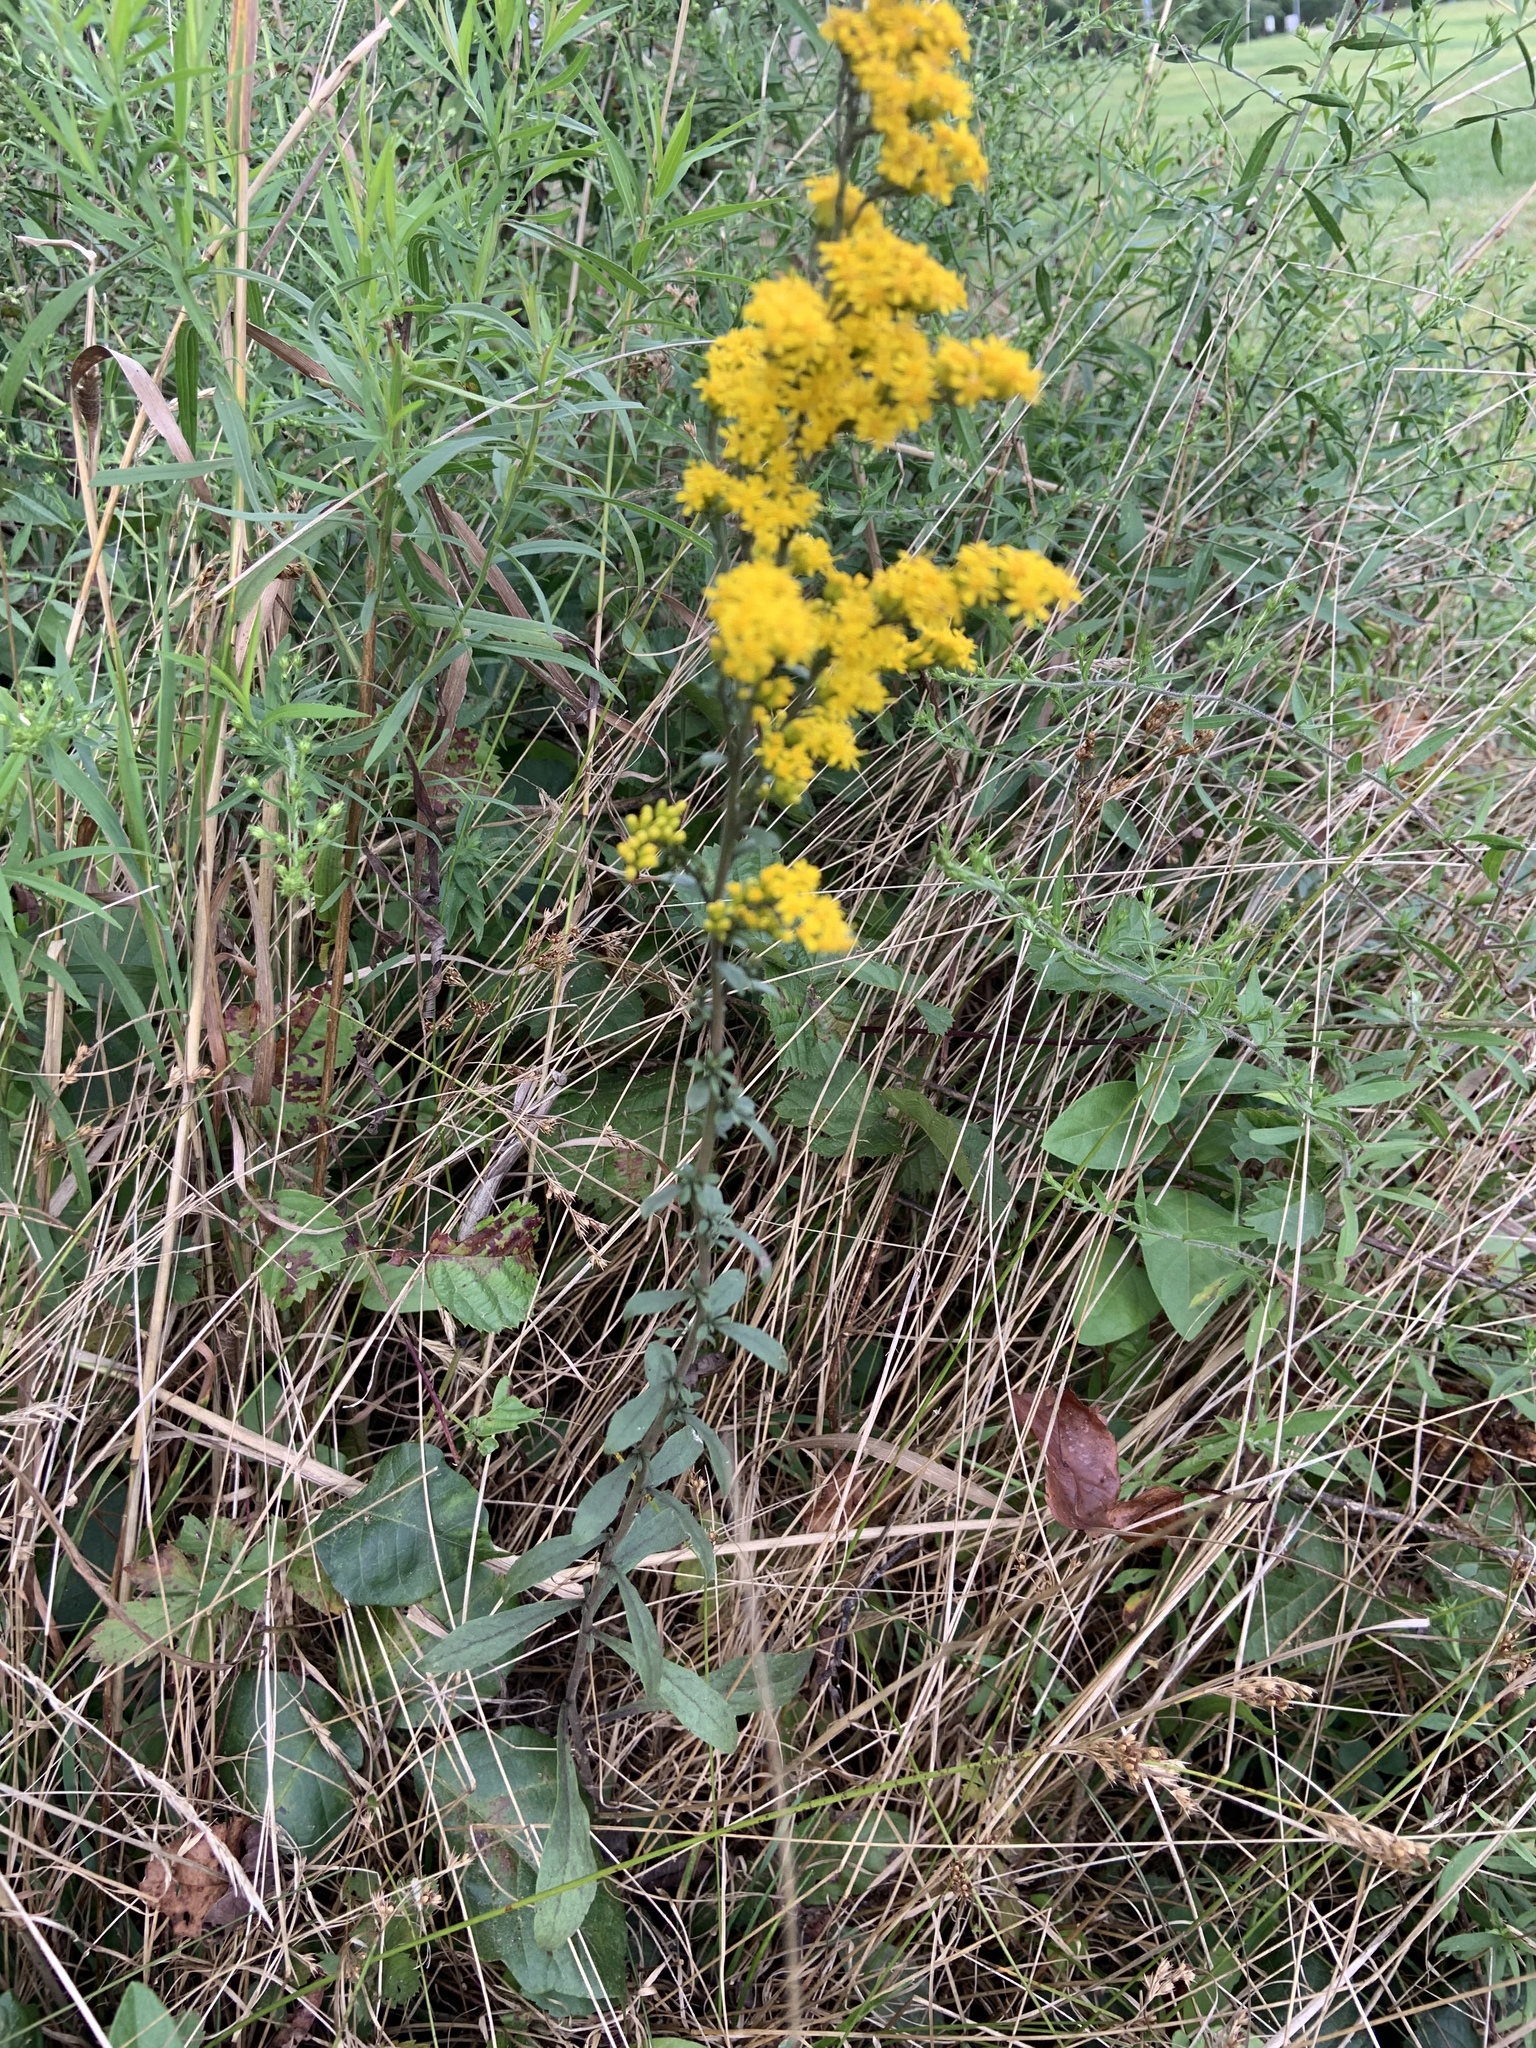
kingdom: Plantae
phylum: Tracheophyta
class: Magnoliopsida
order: Asterales
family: Asteraceae
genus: Solidago
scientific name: Solidago nemoralis
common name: Grey goldenrod
